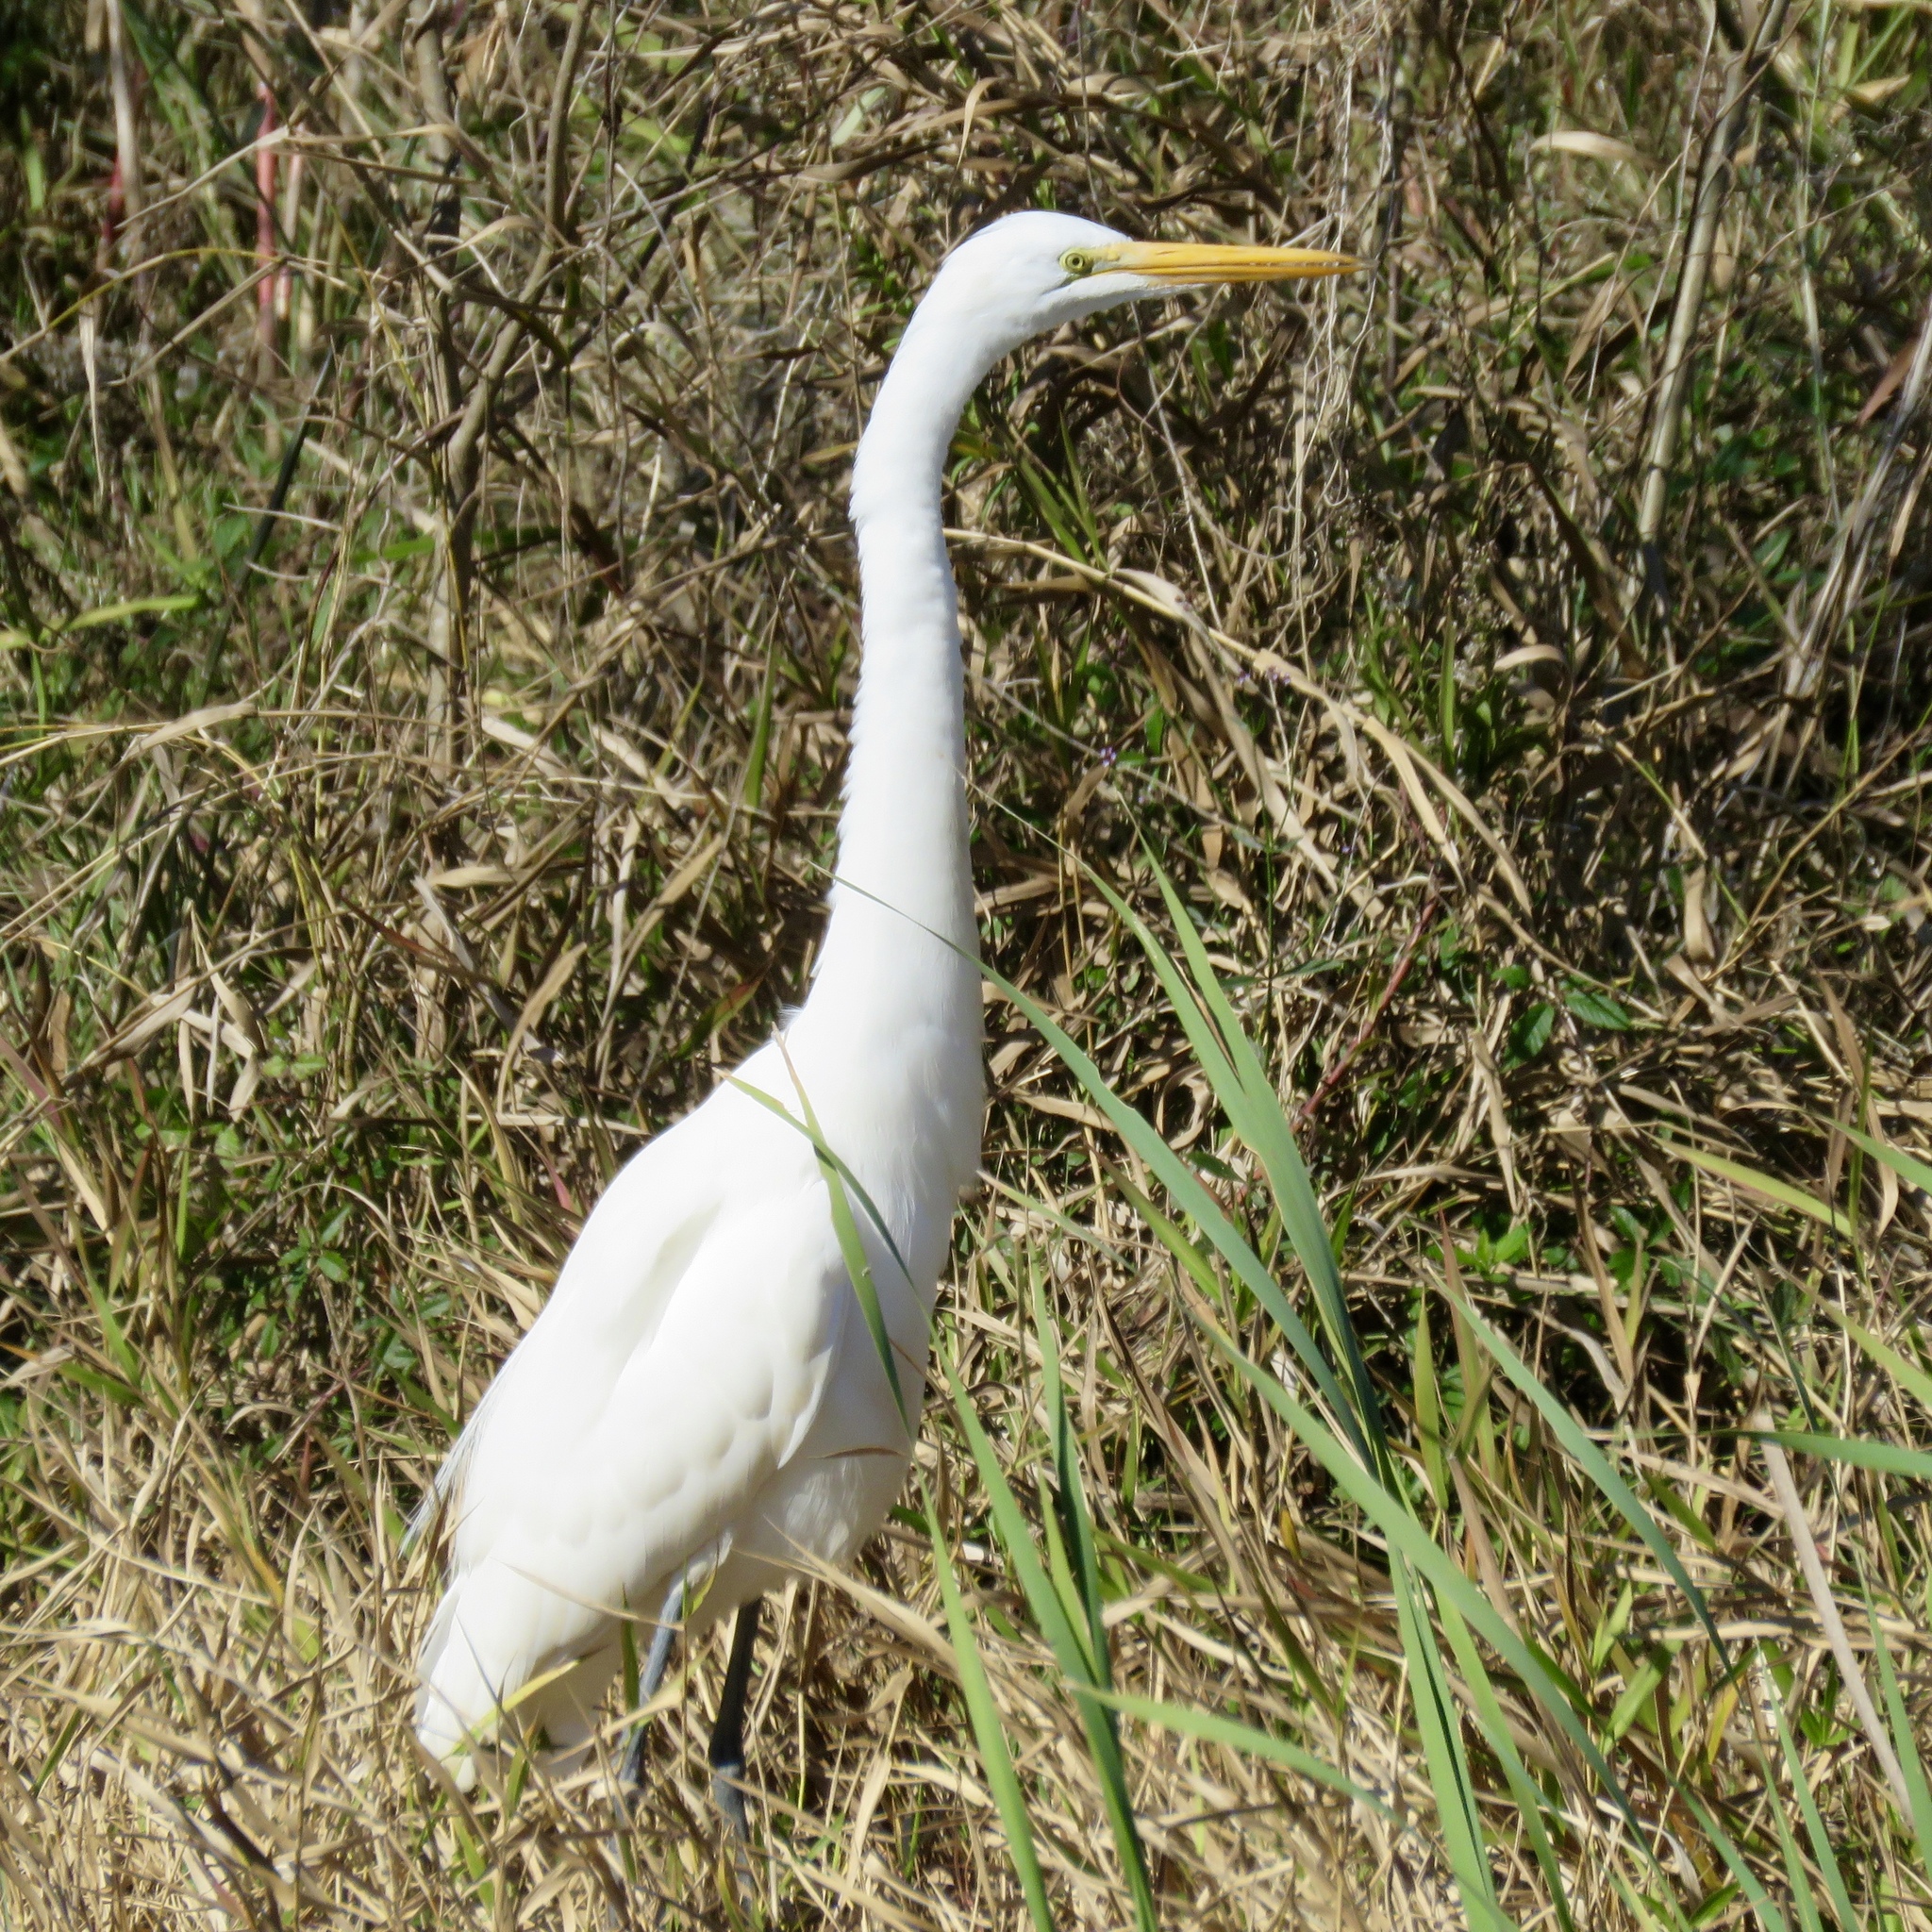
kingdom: Animalia
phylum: Chordata
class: Aves
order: Pelecaniformes
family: Ardeidae
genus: Ardea
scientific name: Ardea alba
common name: Great egret
